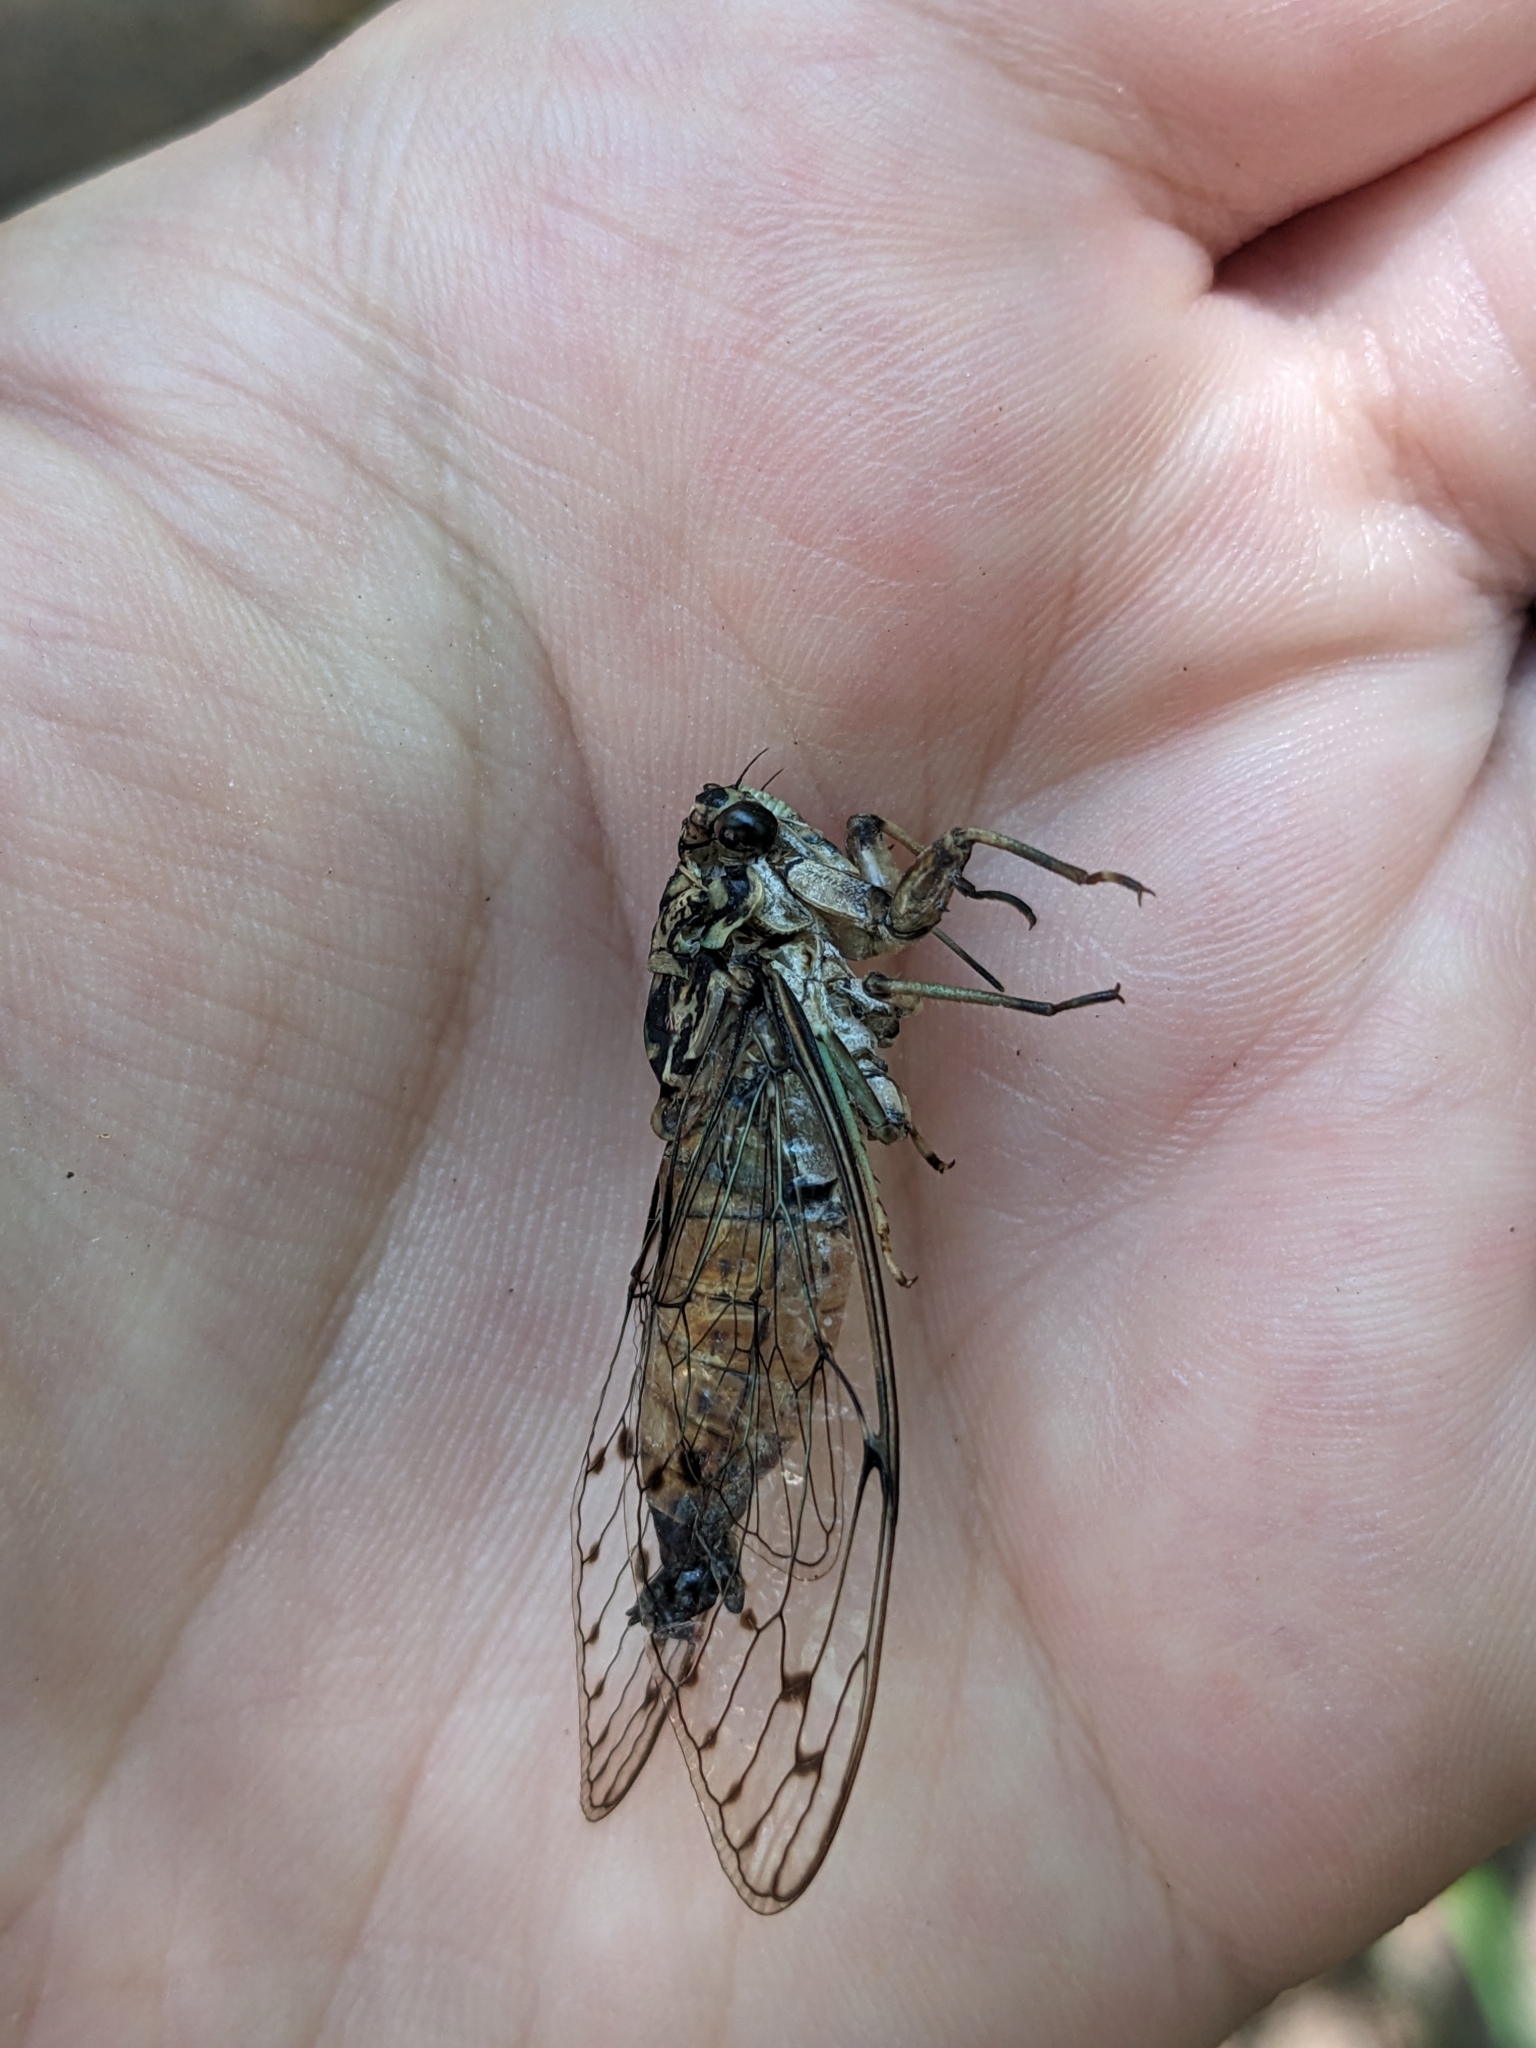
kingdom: Animalia
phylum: Arthropoda
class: Insecta
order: Hemiptera
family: Cicadidae
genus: Neocicada
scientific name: Neocicada hieroglyphica
